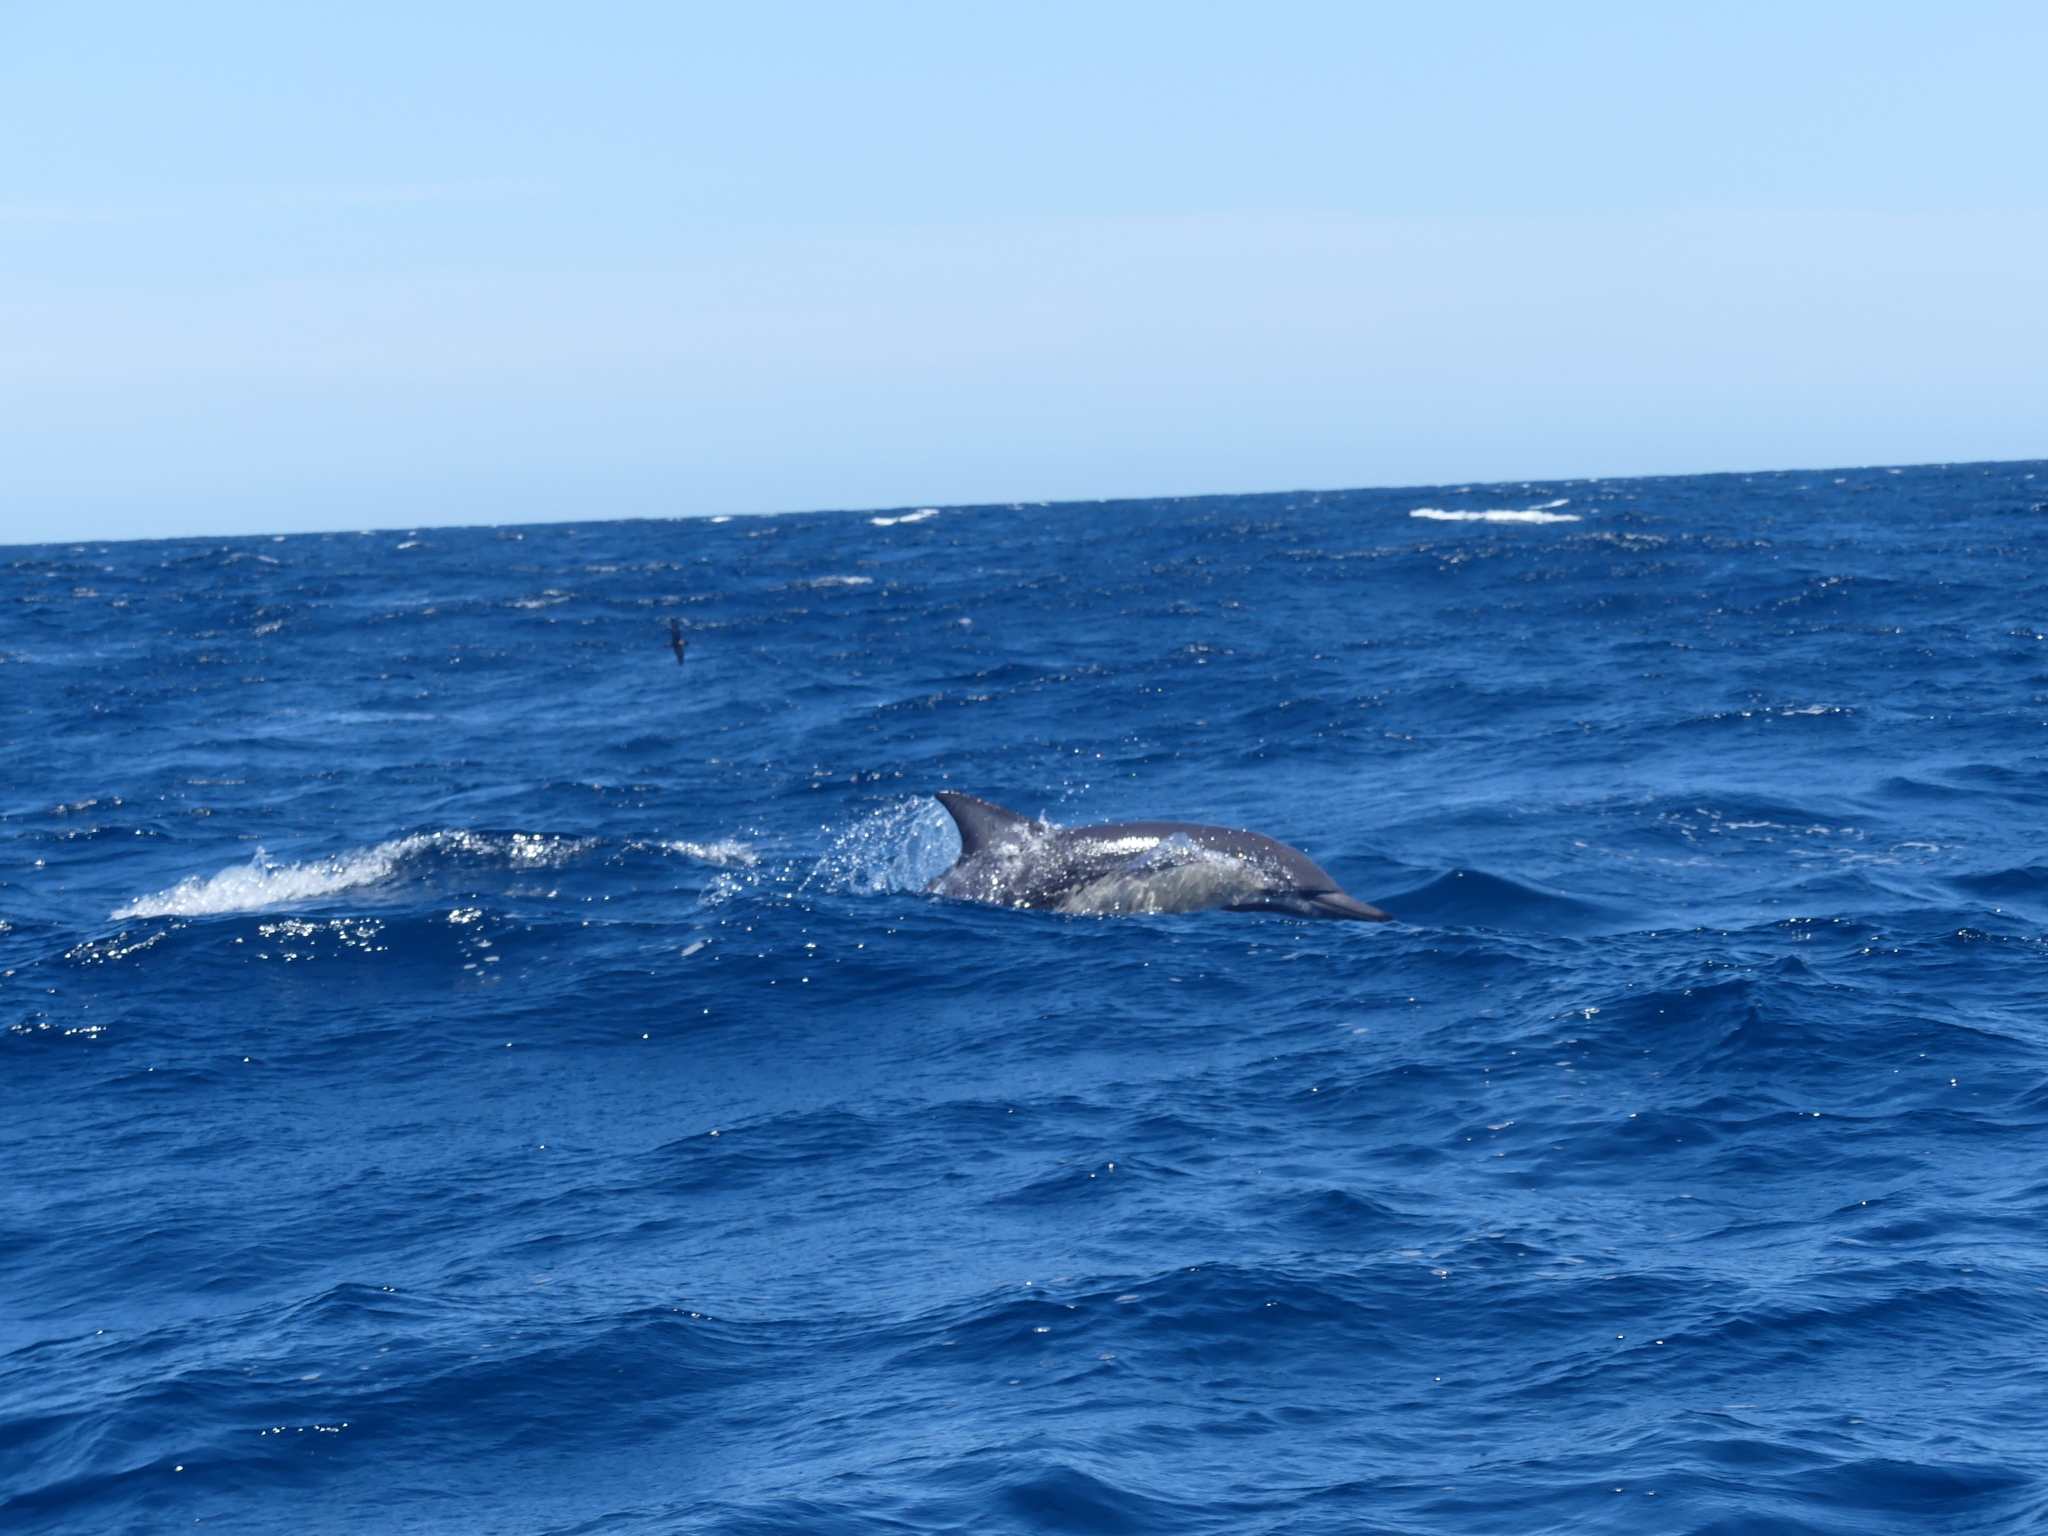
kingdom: Animalia
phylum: Chordata
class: Mammalia
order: Cetacea
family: Delphinidae
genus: Delphinus
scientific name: Delphinus delphis
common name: Common dolphin
